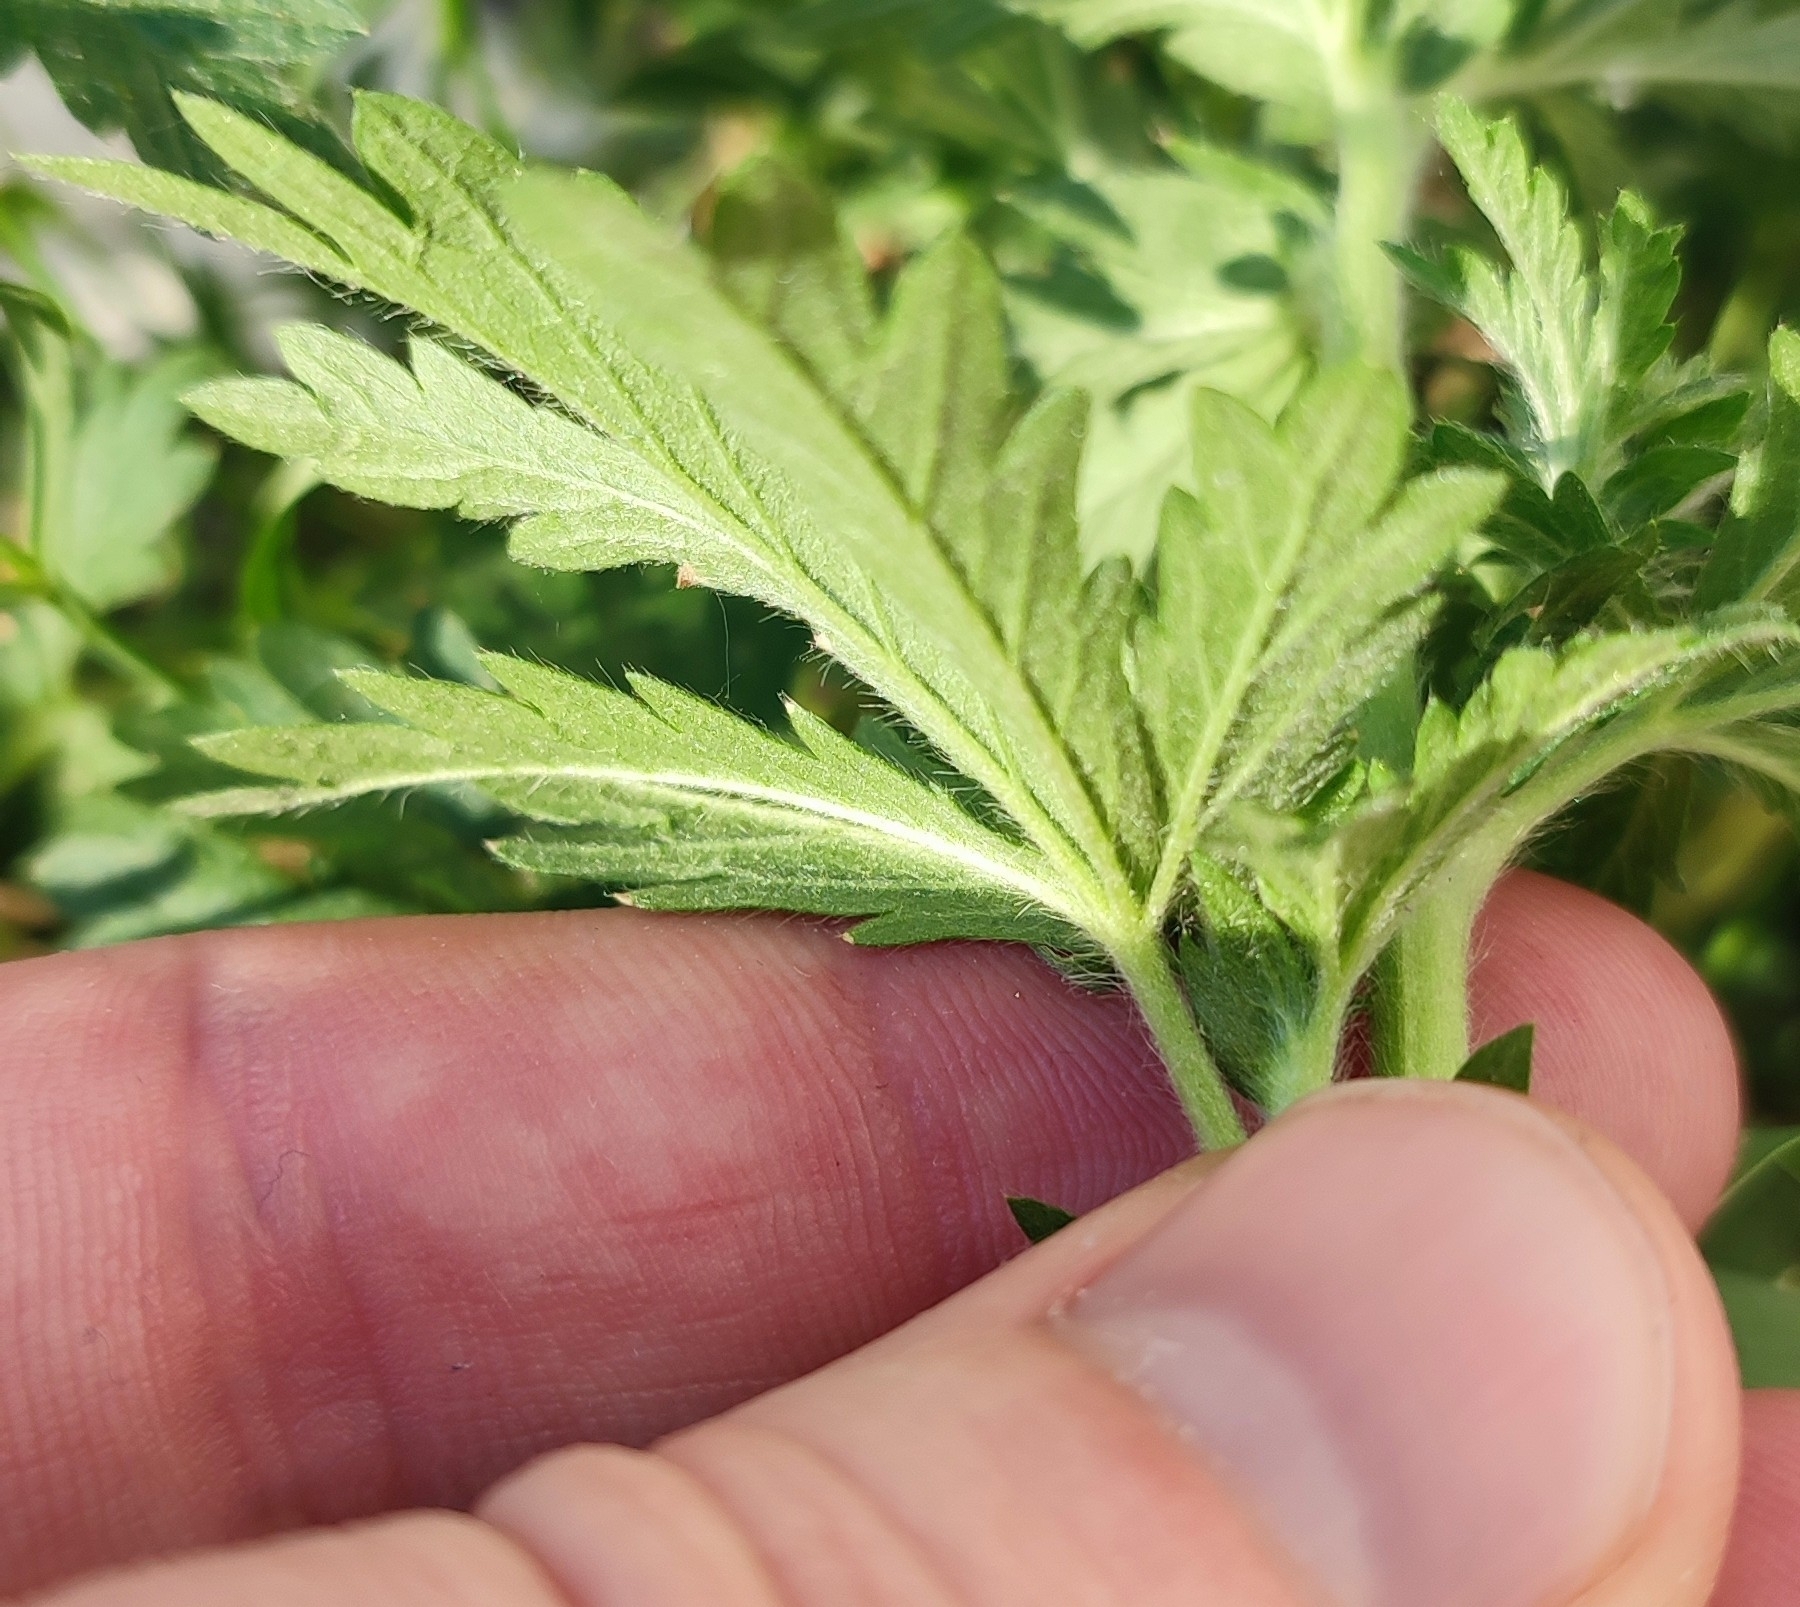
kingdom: Plantae
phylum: Tracheophyta
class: Magnoliopsida
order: Rosales
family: Rosaceae
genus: Potentilla
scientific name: Potentilla intermedia
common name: Downy cinquefoil
